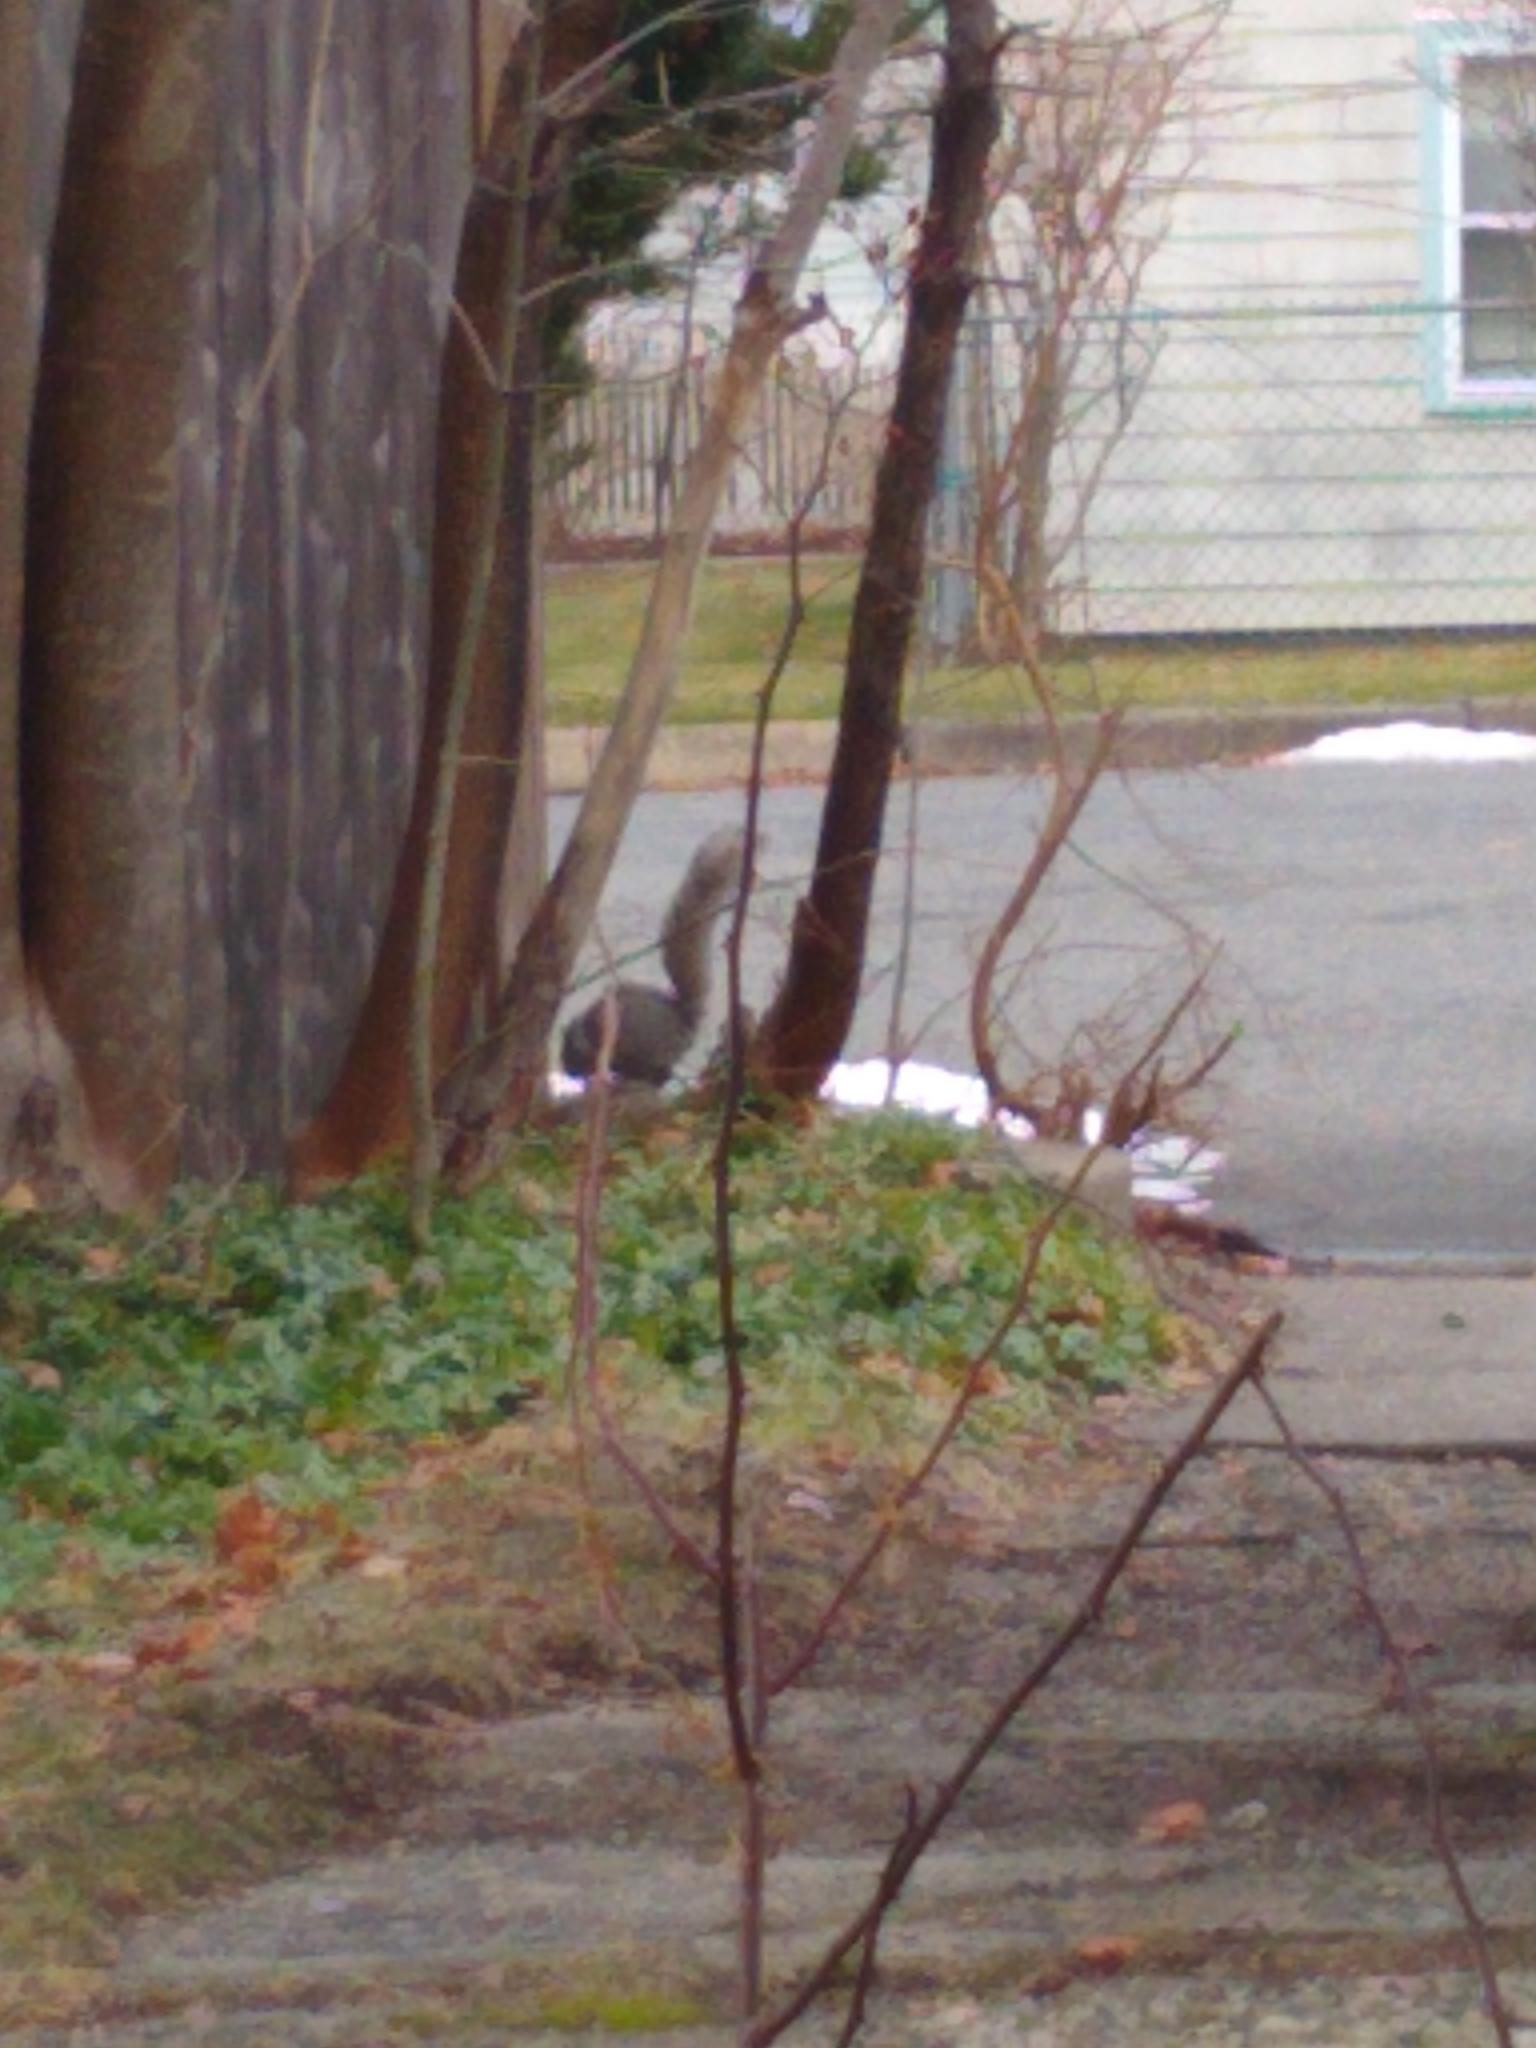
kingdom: Animalia
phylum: Chordata
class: Mammalia
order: Rodentia
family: Sciuridae
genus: Sciurus
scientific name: Sciurus carolinensis
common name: Eastern gray squirrel
